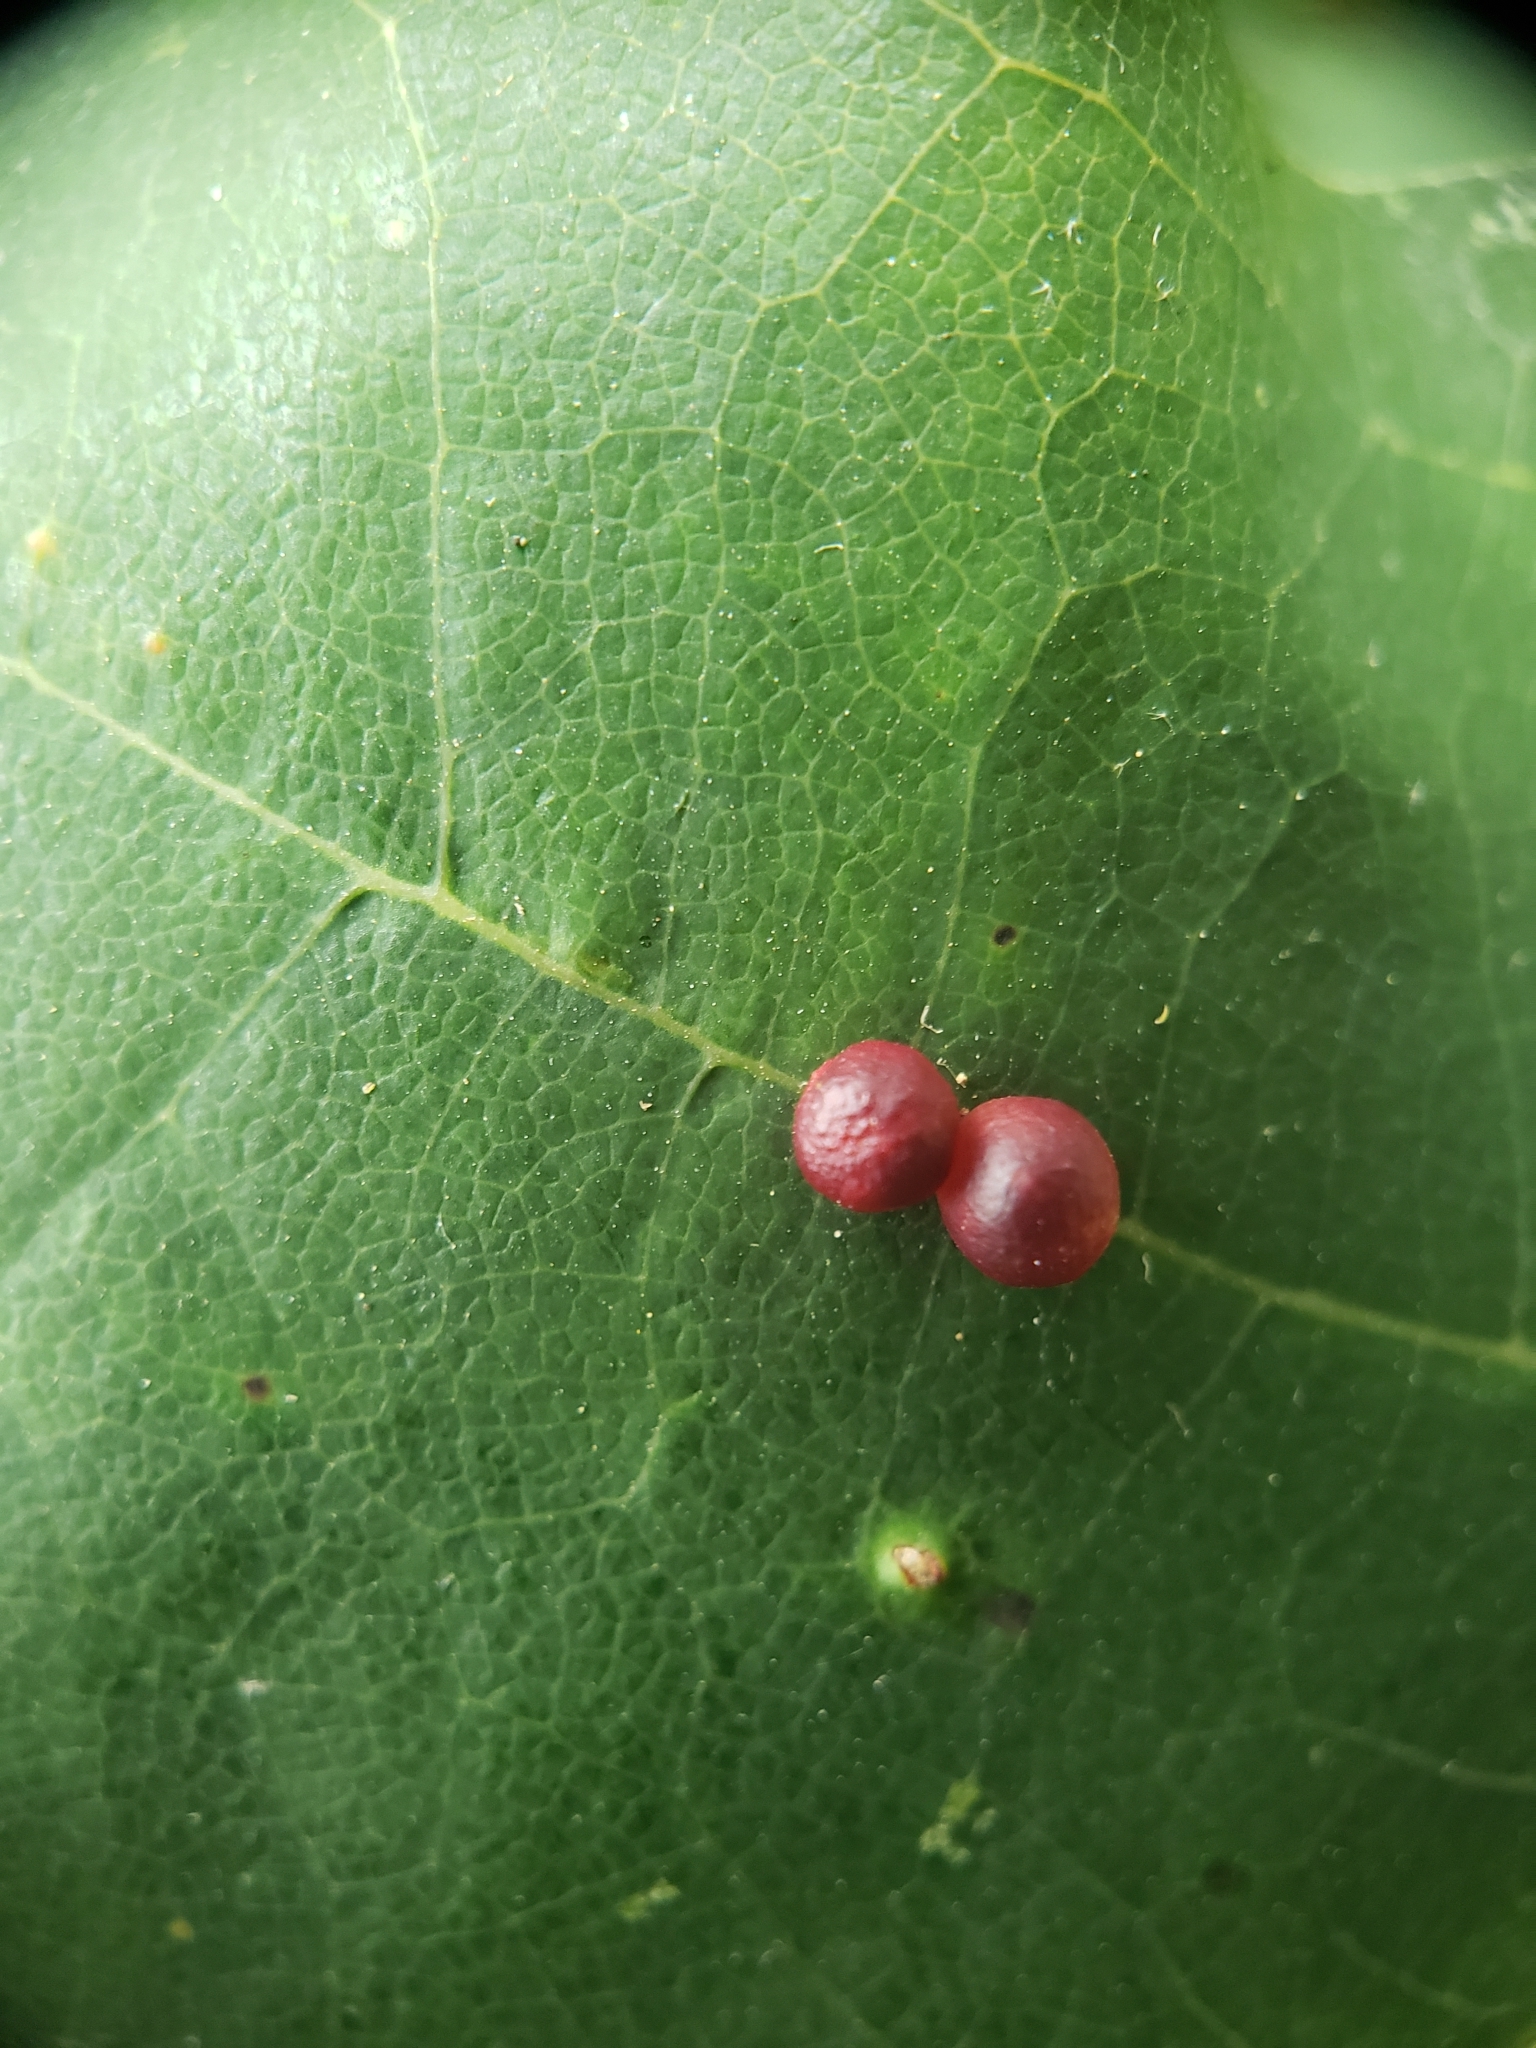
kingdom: Animalia
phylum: Arthropoda
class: Insecta
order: Hymenoptera
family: Cynipidae
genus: Zopheroteras
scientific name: Zopheroteras
